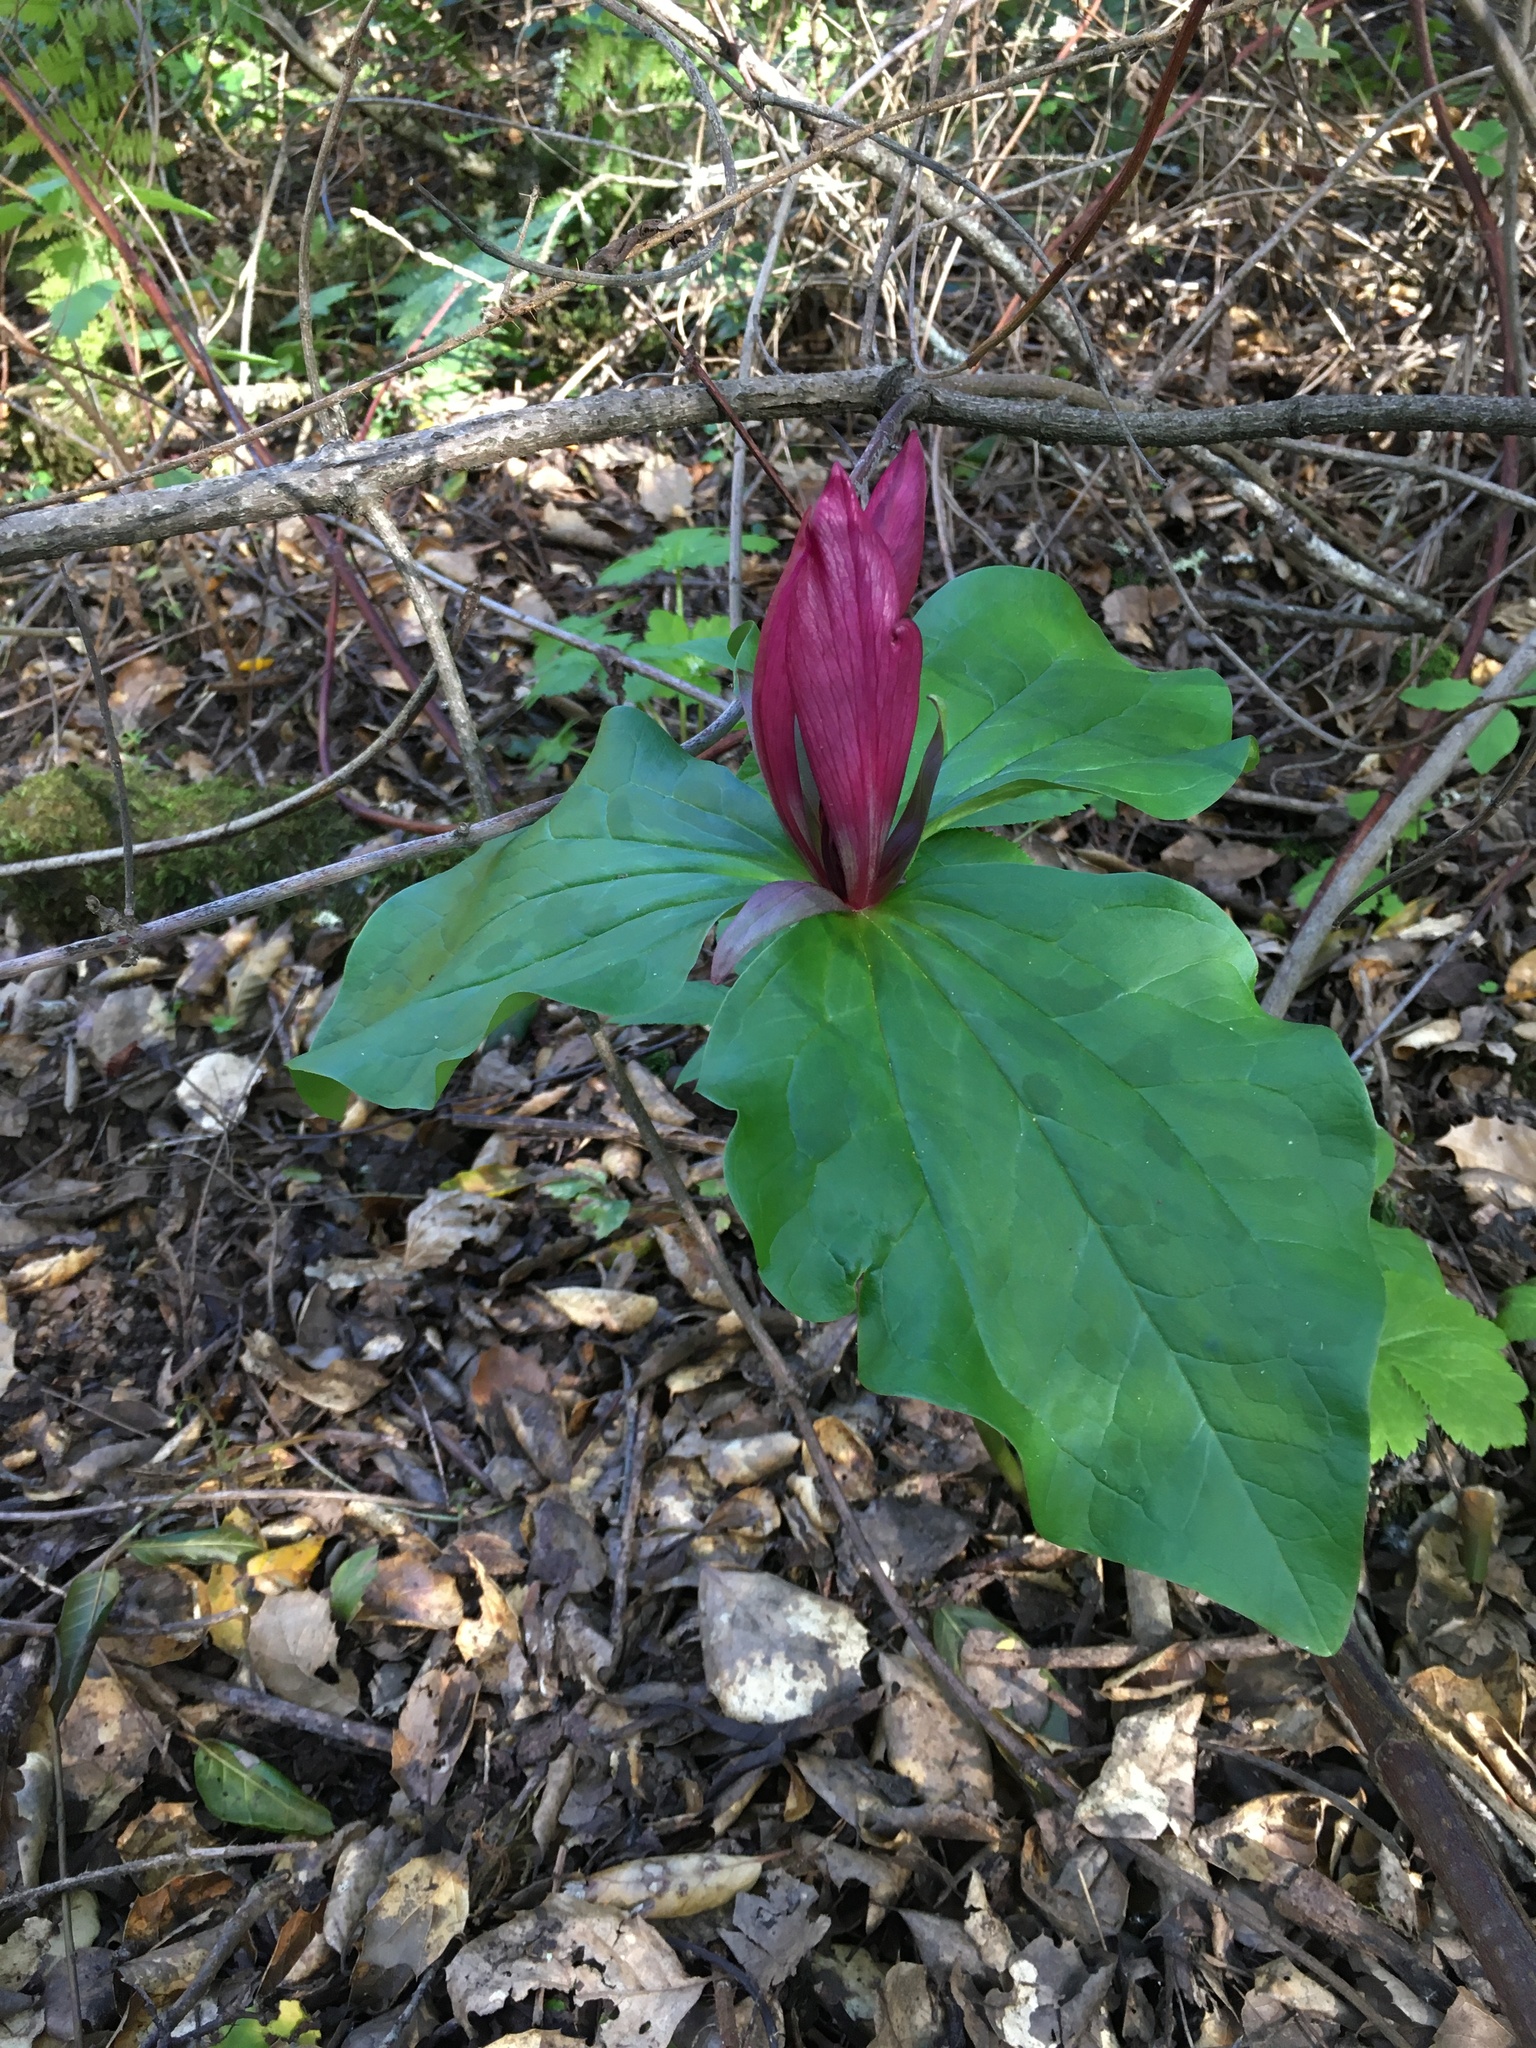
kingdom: Plantae
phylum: Tracheophyta
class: Liliopsida
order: Liliales
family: Melanthiaceae
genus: Trillium
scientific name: Trillium chloropetalum
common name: Giant trillium
